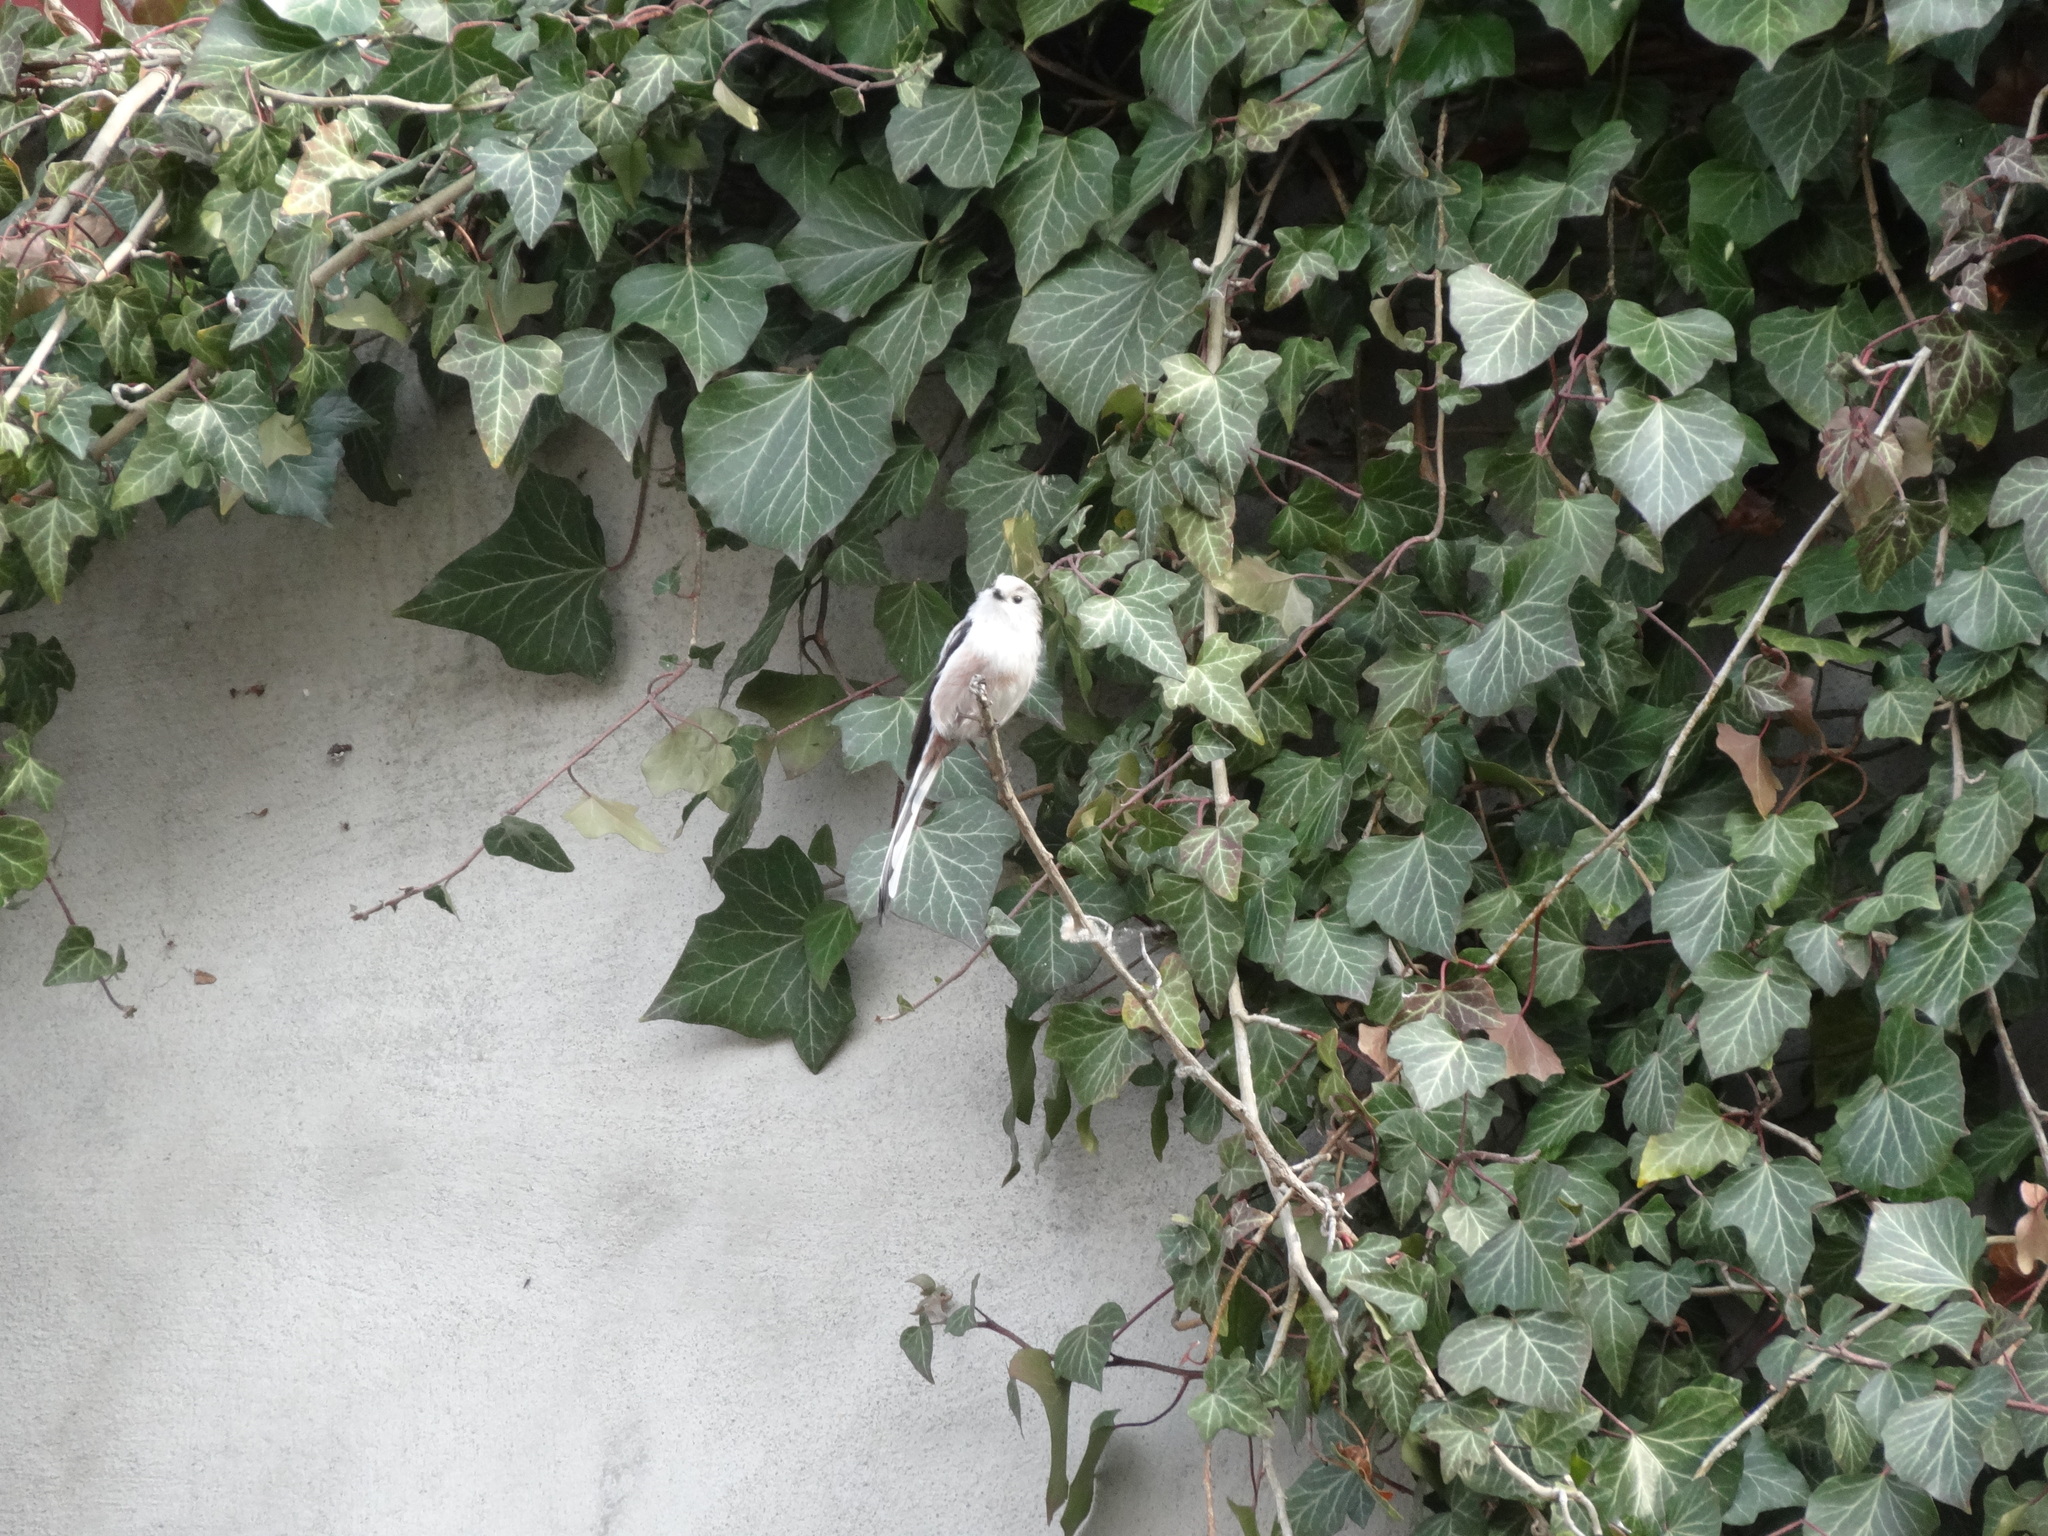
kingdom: Animalia
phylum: Chordata
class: Aves
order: Passeriformes
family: Aegithalidae
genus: Aegithalos
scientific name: Aegithalos caudatus
